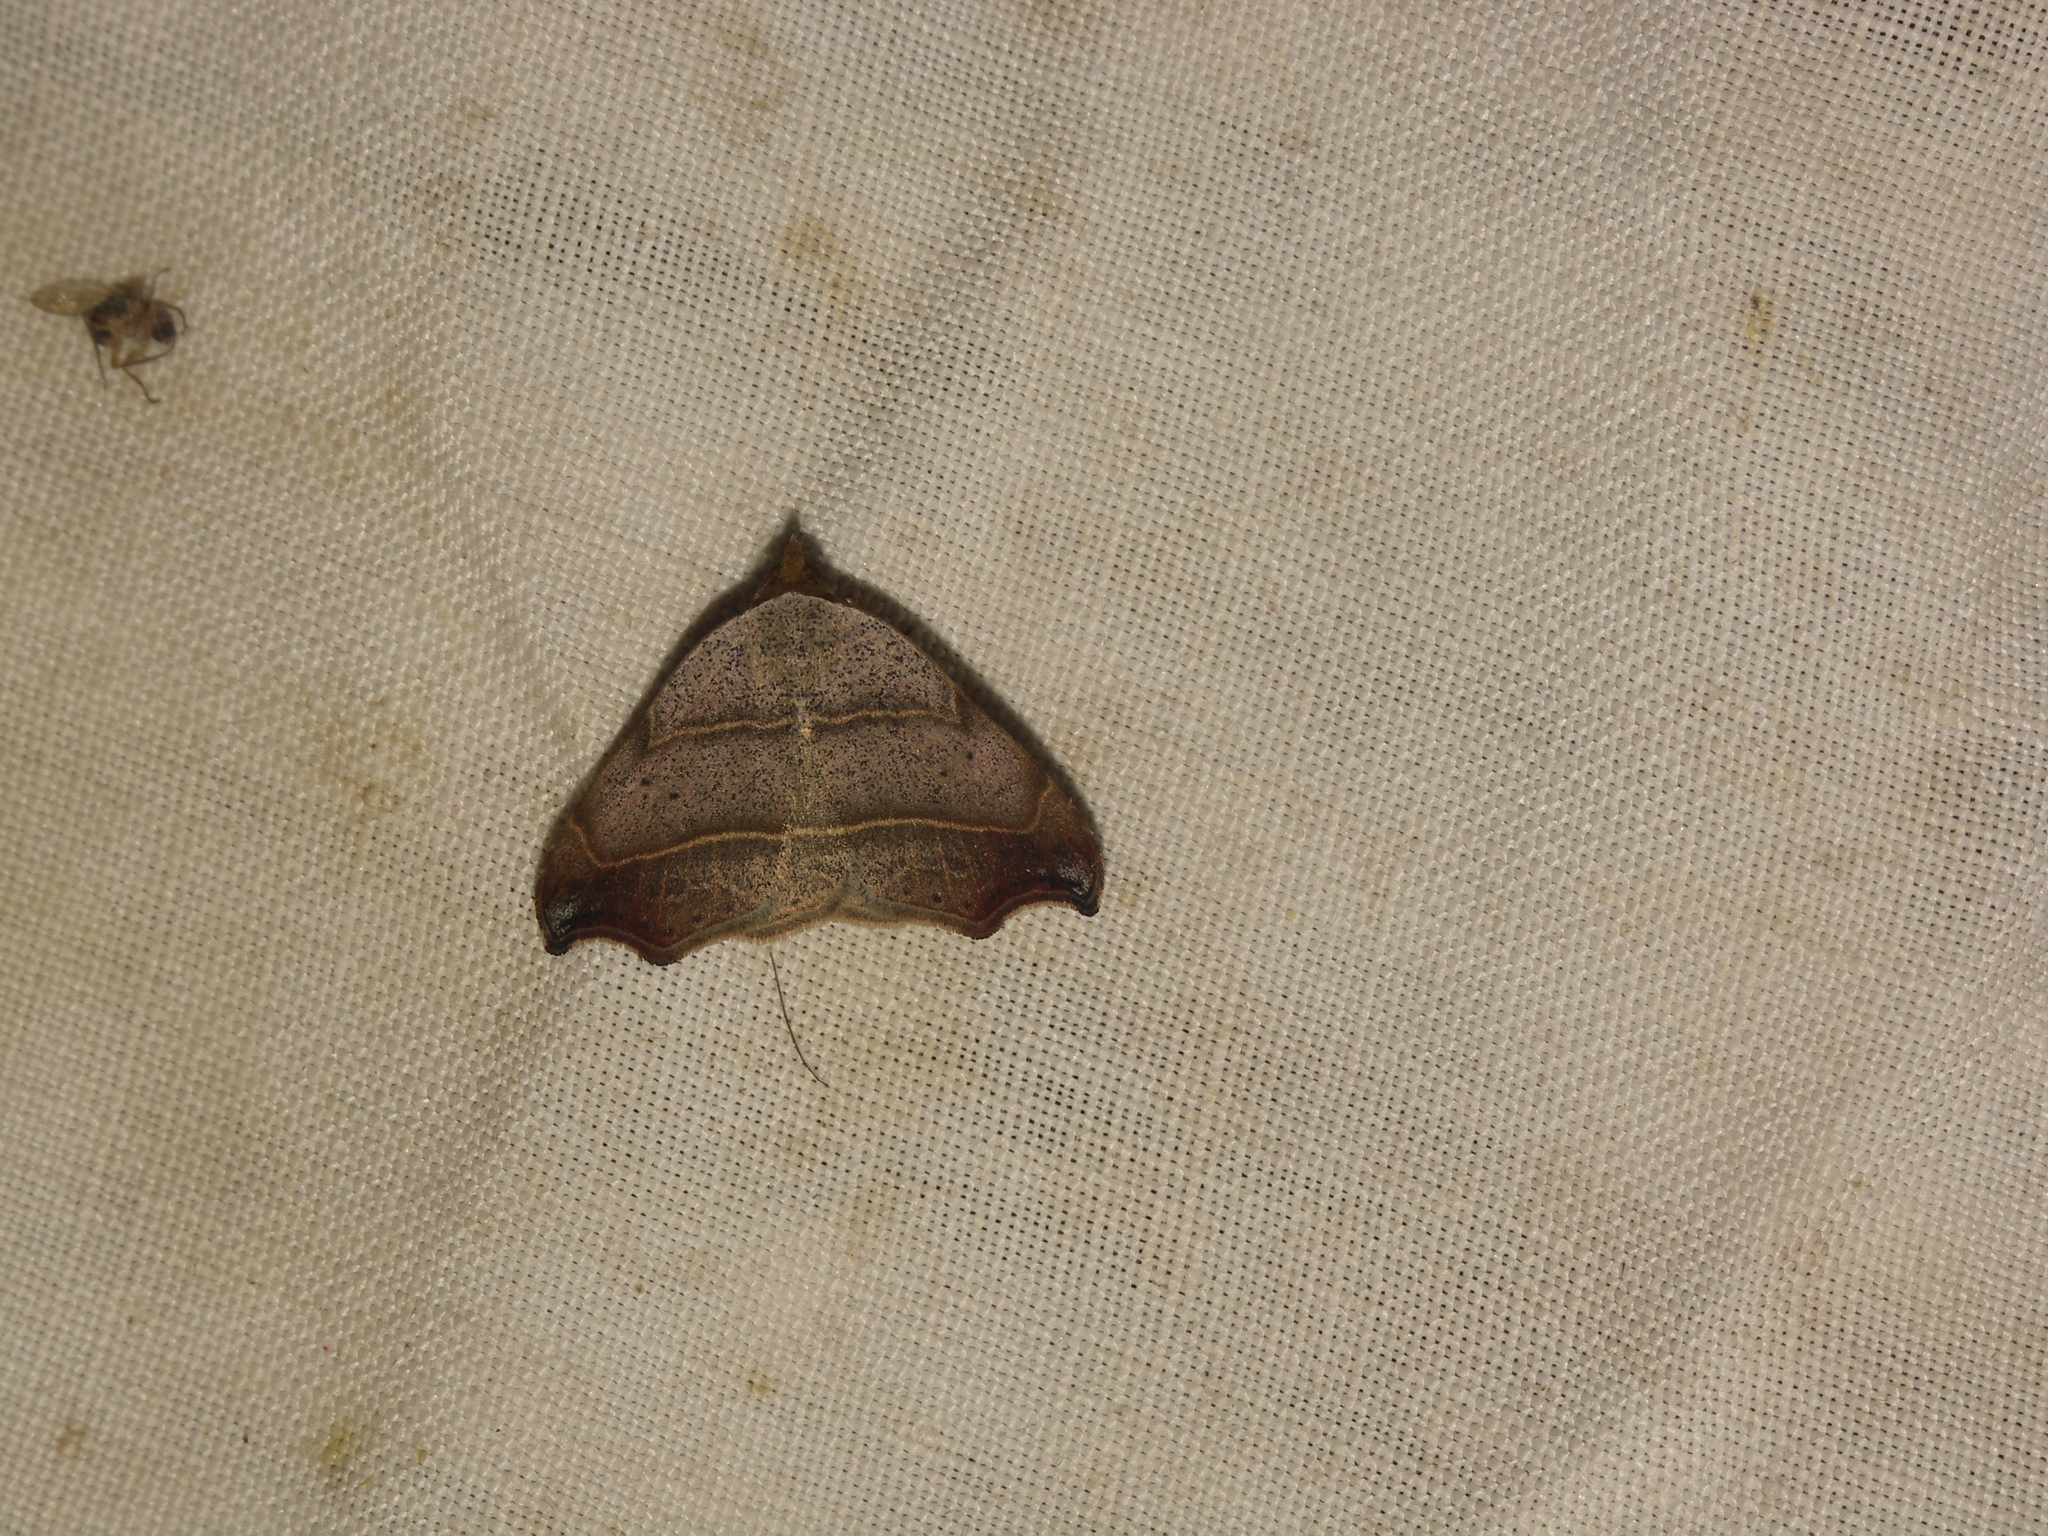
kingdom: Animalia
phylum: Arthropoda
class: Insecta
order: Lepidoptera
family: Erebidae
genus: Laspeyria
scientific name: Laspeyria flexula
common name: Beautiful hook-tip
